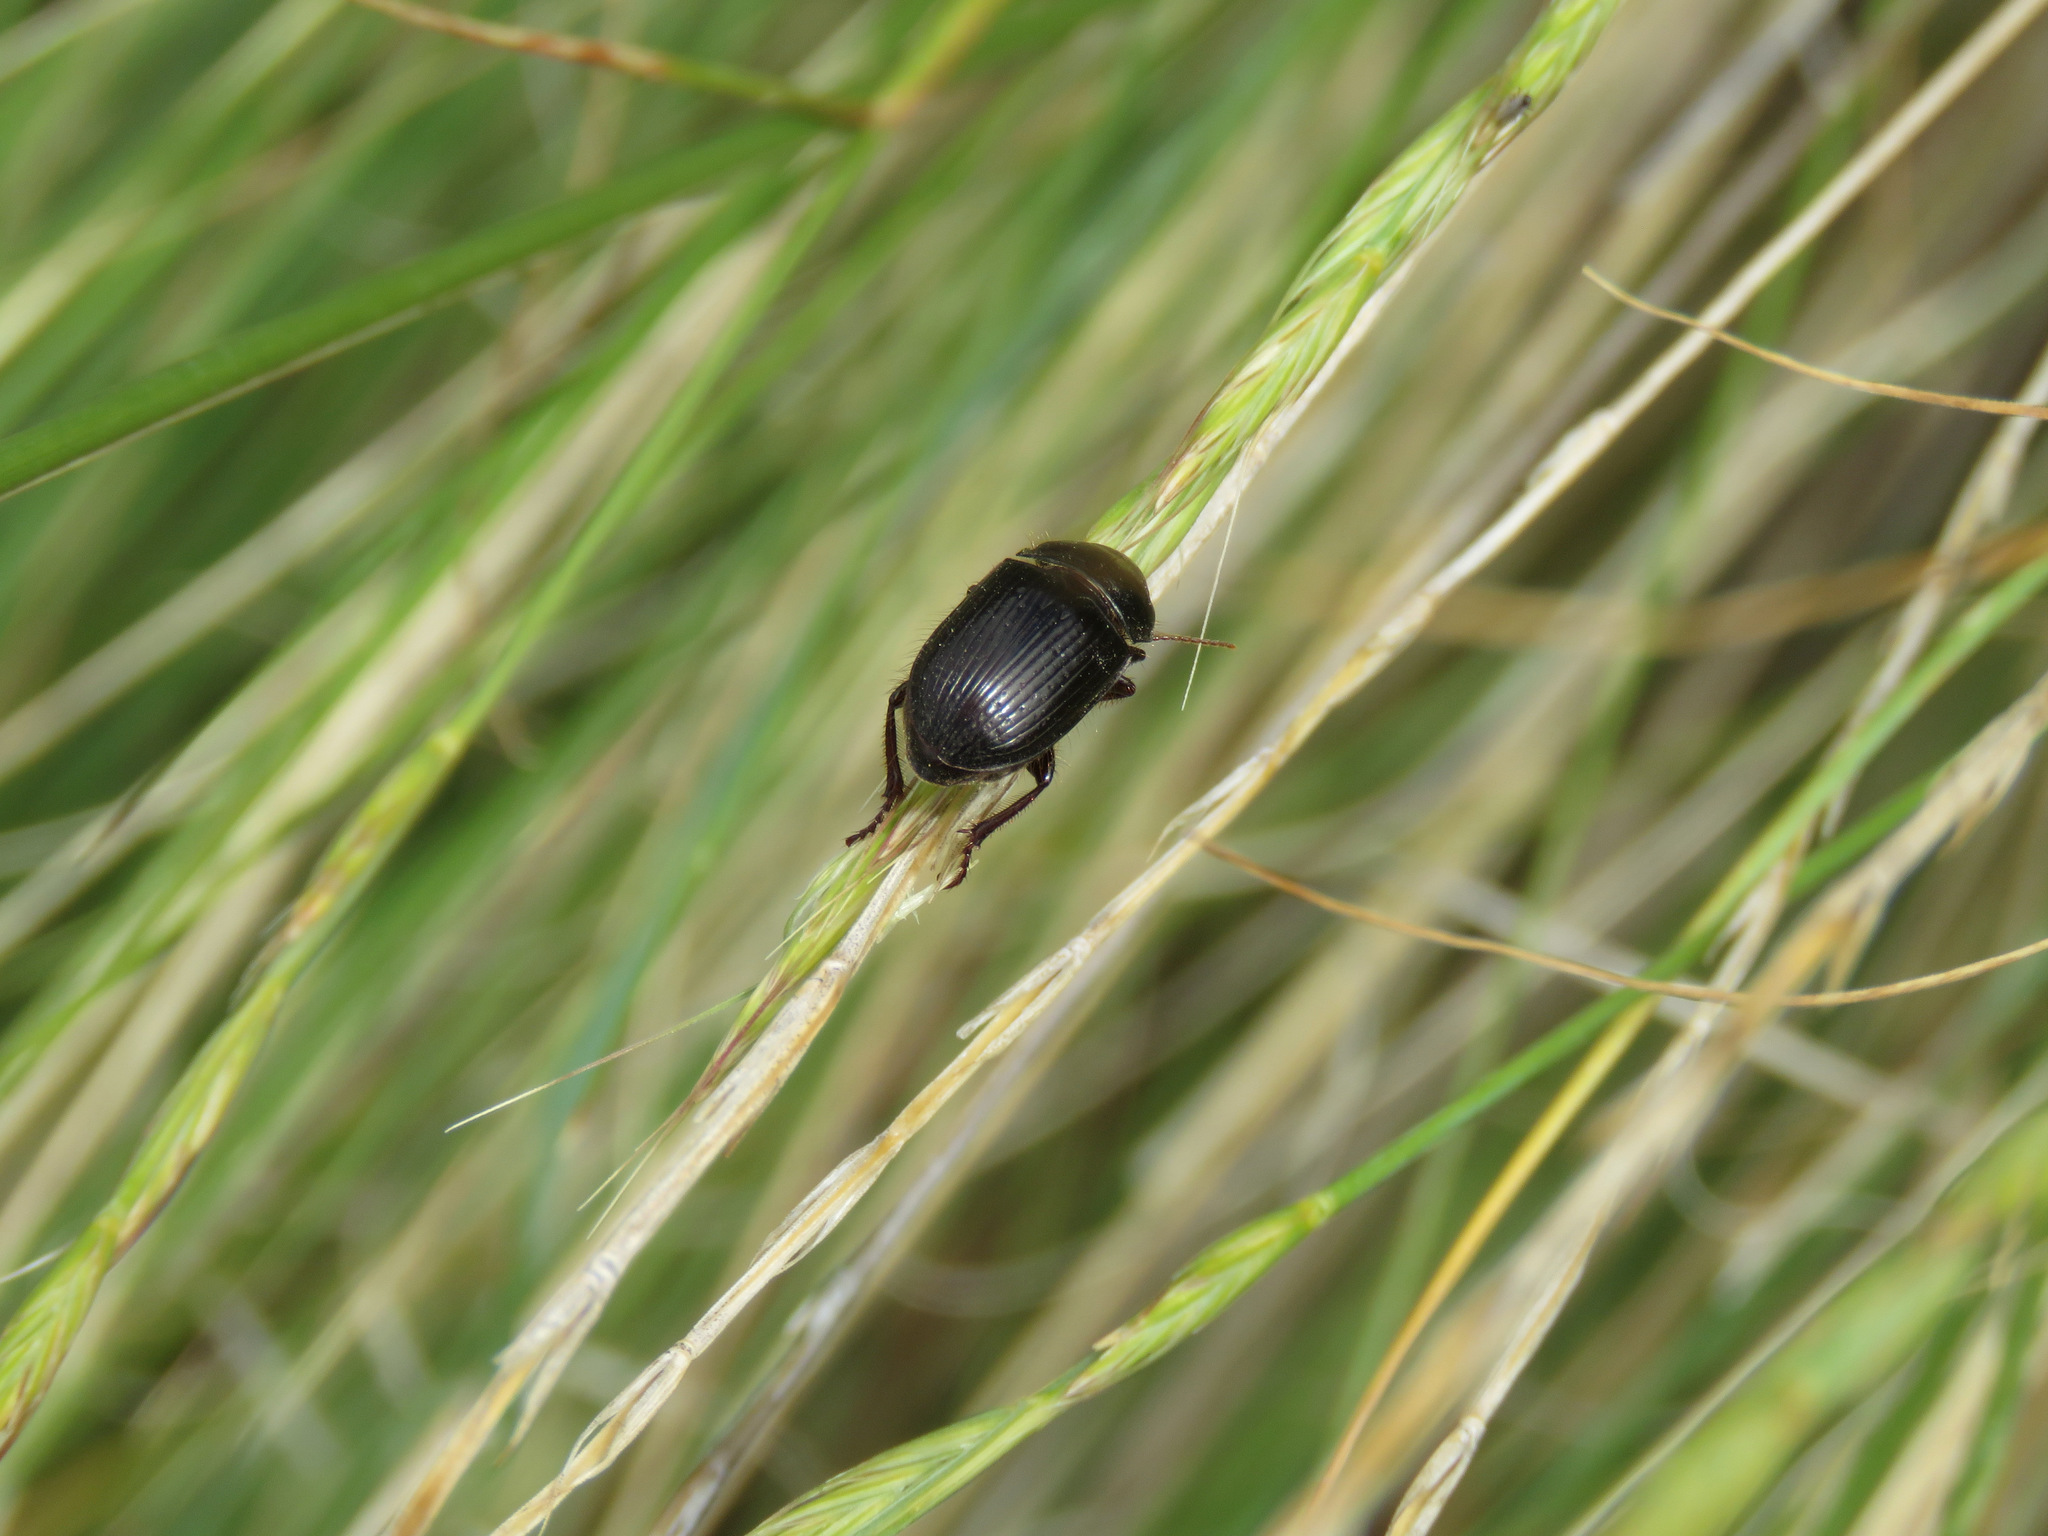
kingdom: Animalia
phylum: Arthropoda
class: Insecta
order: Coleoptera
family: Carabidae
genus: Piosoma
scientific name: Piosoma setosum
